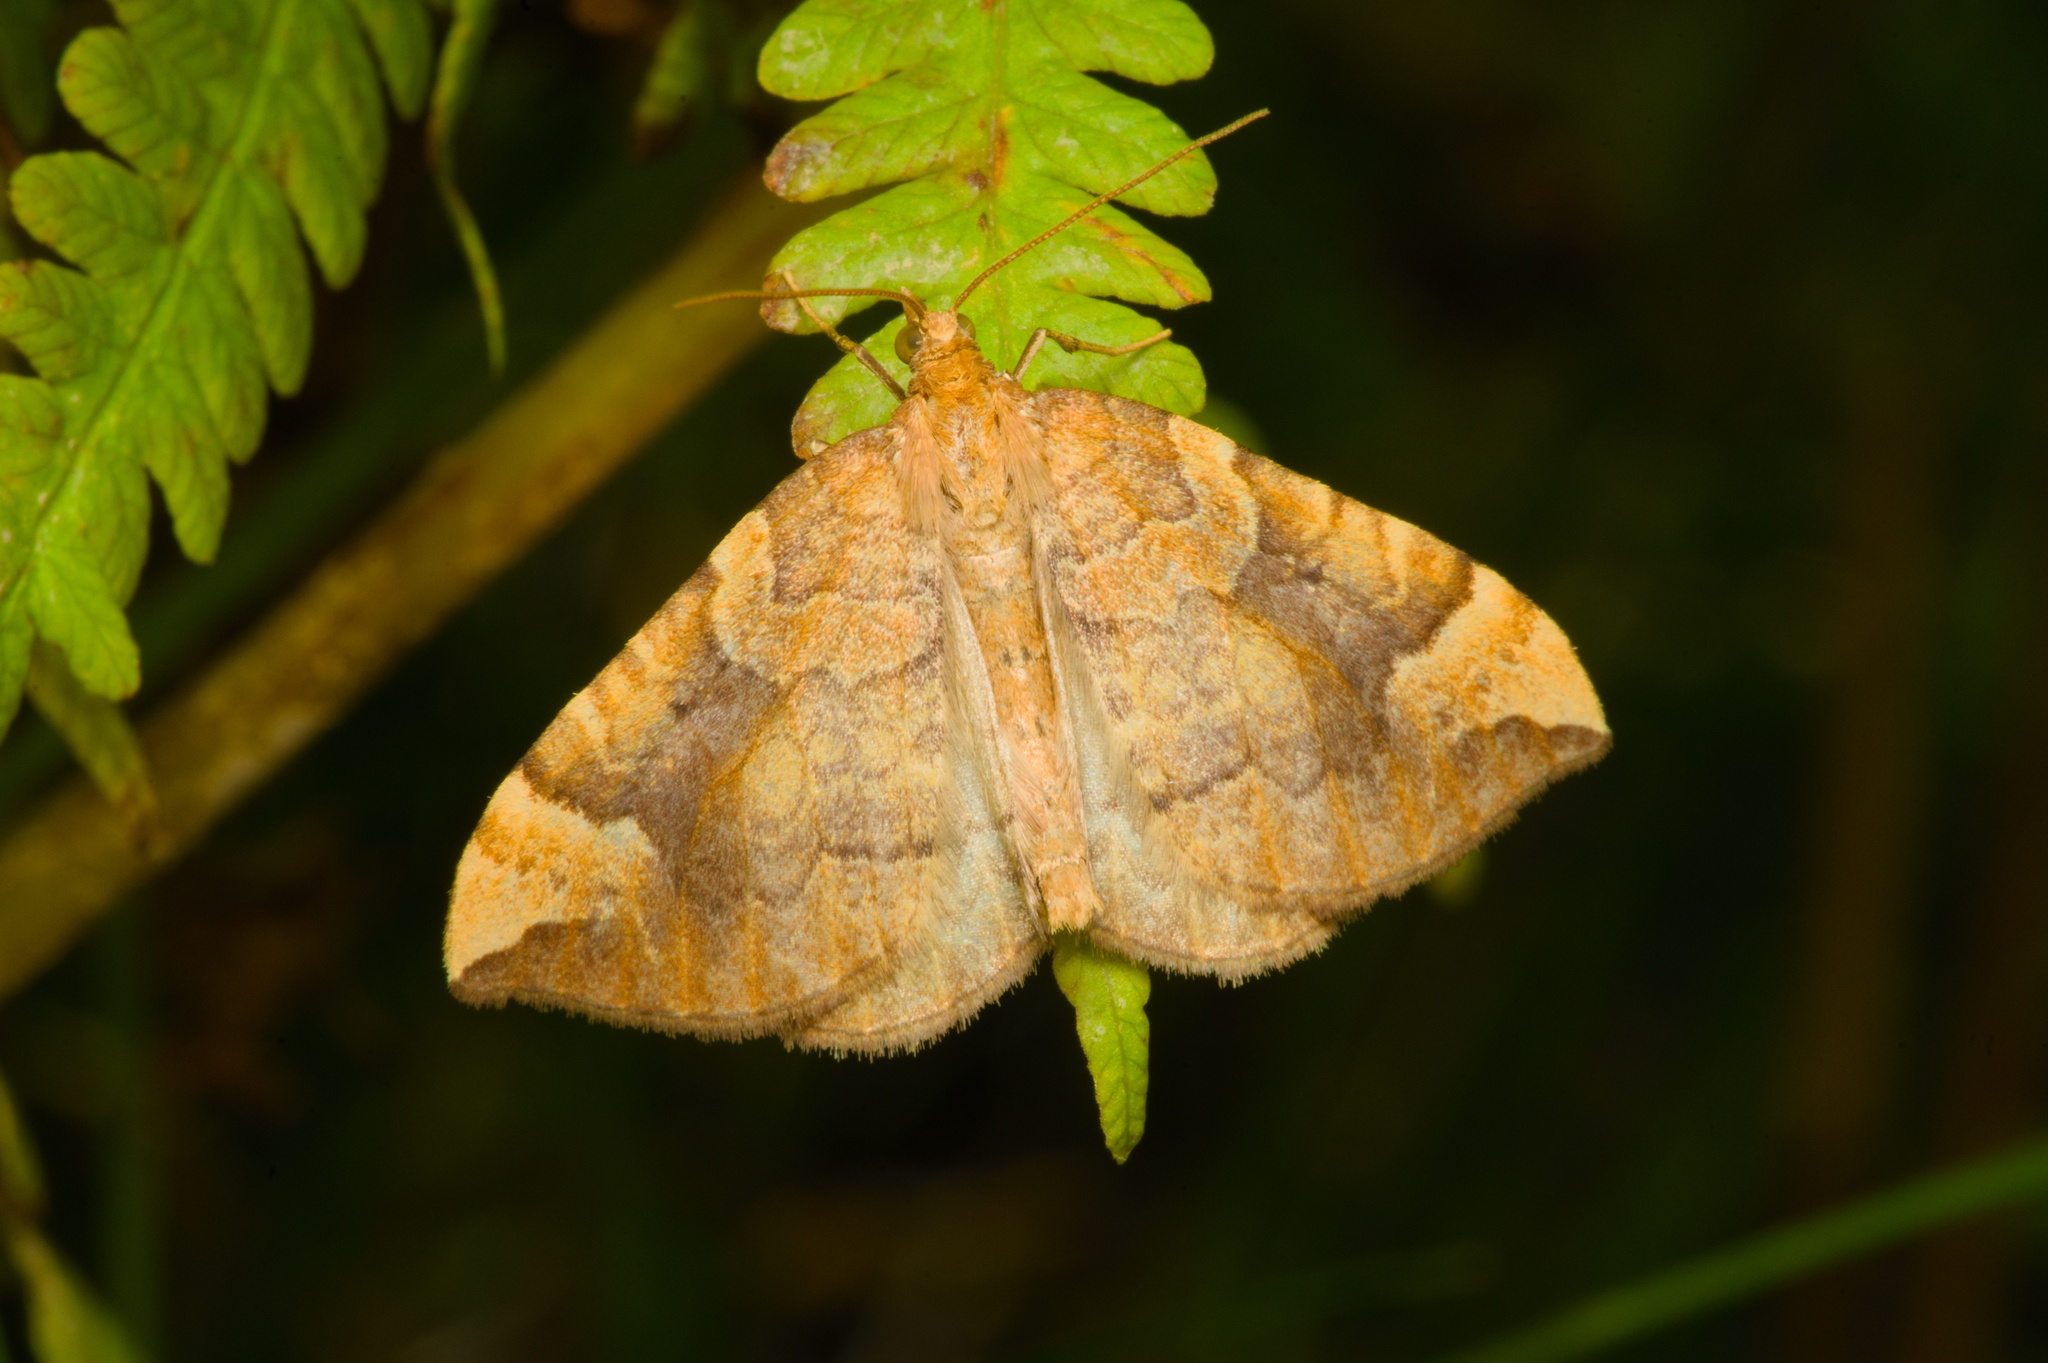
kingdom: Animalia
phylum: Arthropoda
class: Insecta
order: Lepidoptera
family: Geometridae
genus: Eulithis
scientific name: Eulithis populata
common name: Northern spinach
